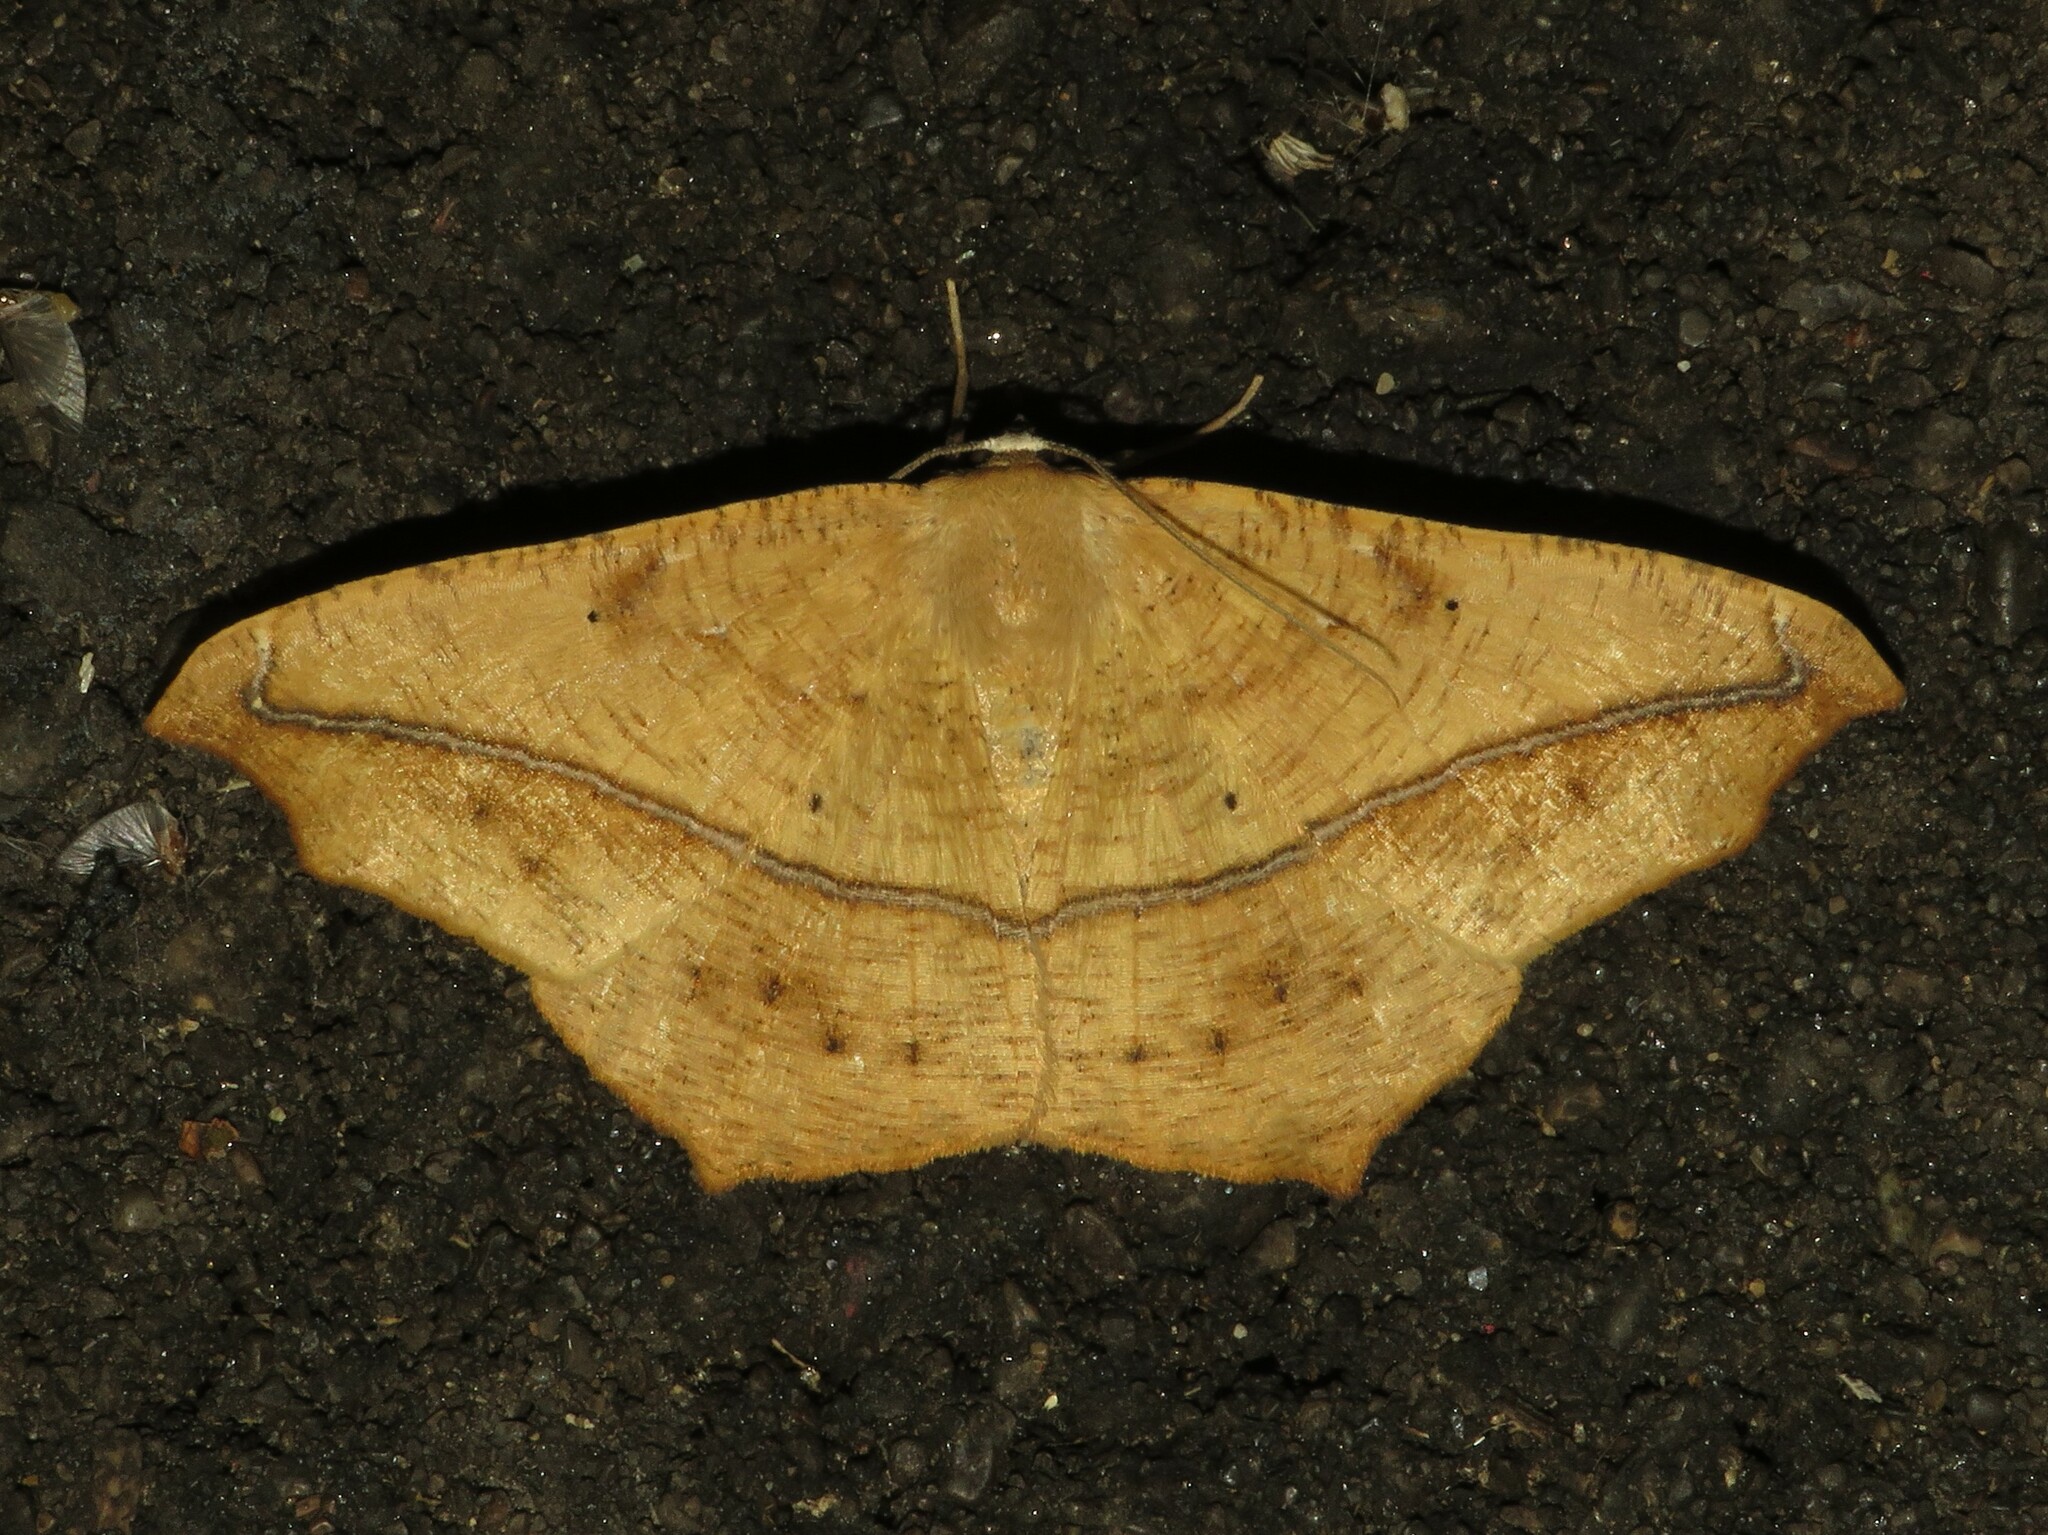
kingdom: Animalia
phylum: Arthropoda
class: Insecta
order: Lepidoptera
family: Geometridae
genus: Prochoerodes
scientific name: Prochoerodes lineola
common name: Large maple spanworm
